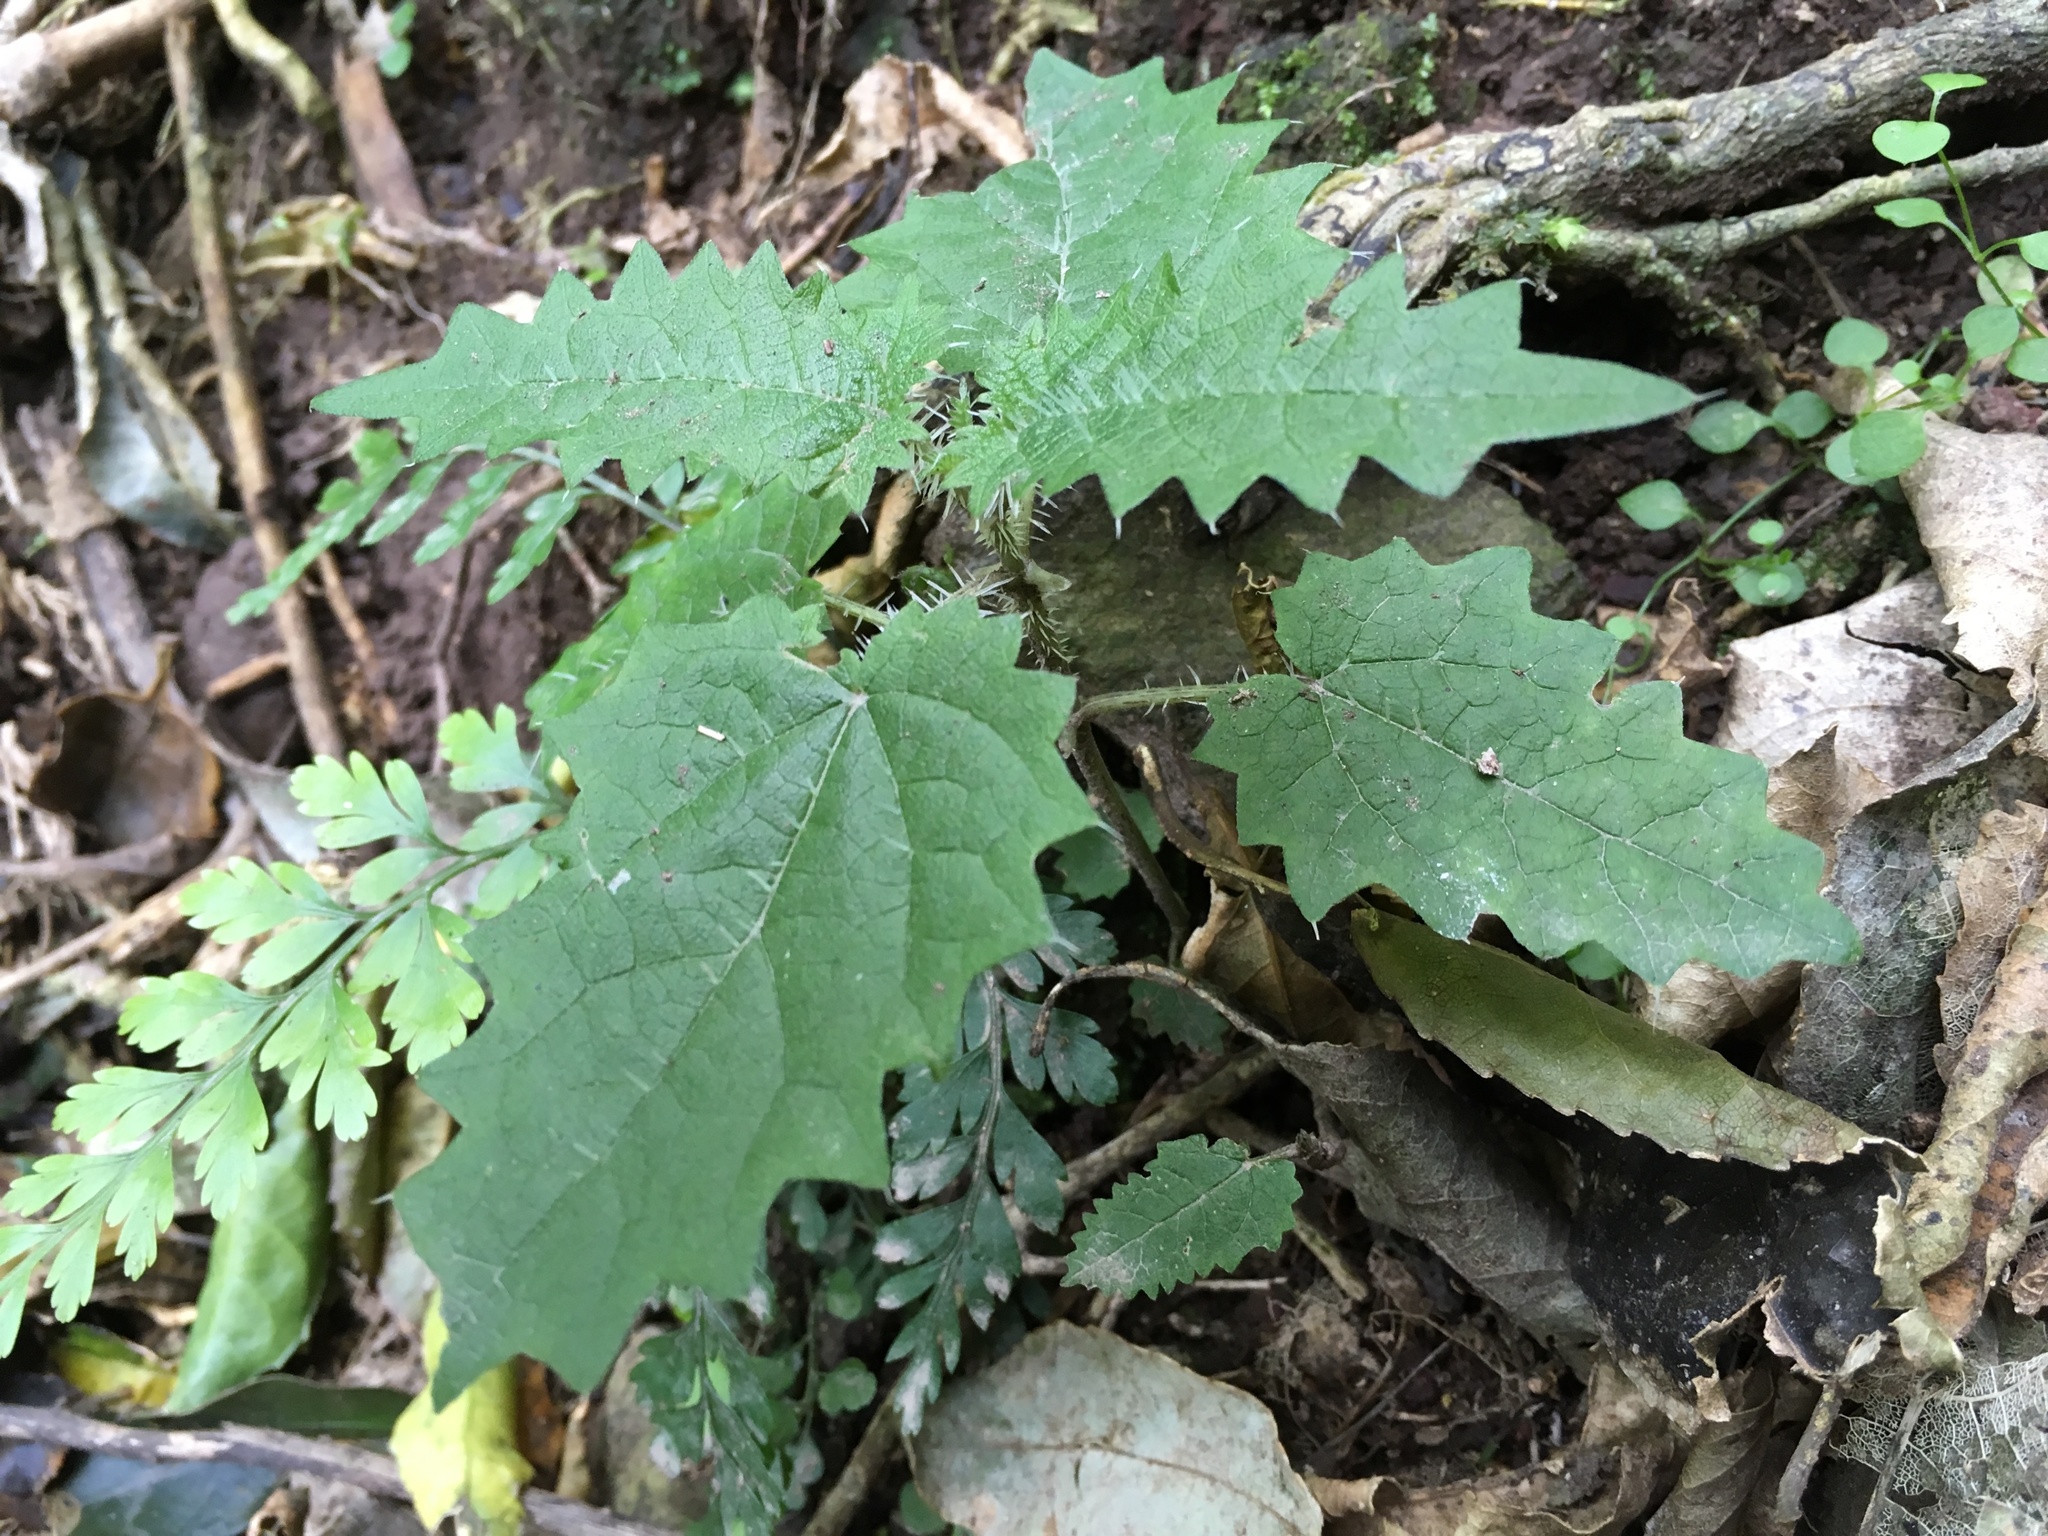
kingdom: Plantae
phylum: Tracheophyta
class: Magnoliopsida
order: Rosales
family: Urticaceae
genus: Urtica
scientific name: Urtica ferox
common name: Tree nettle
